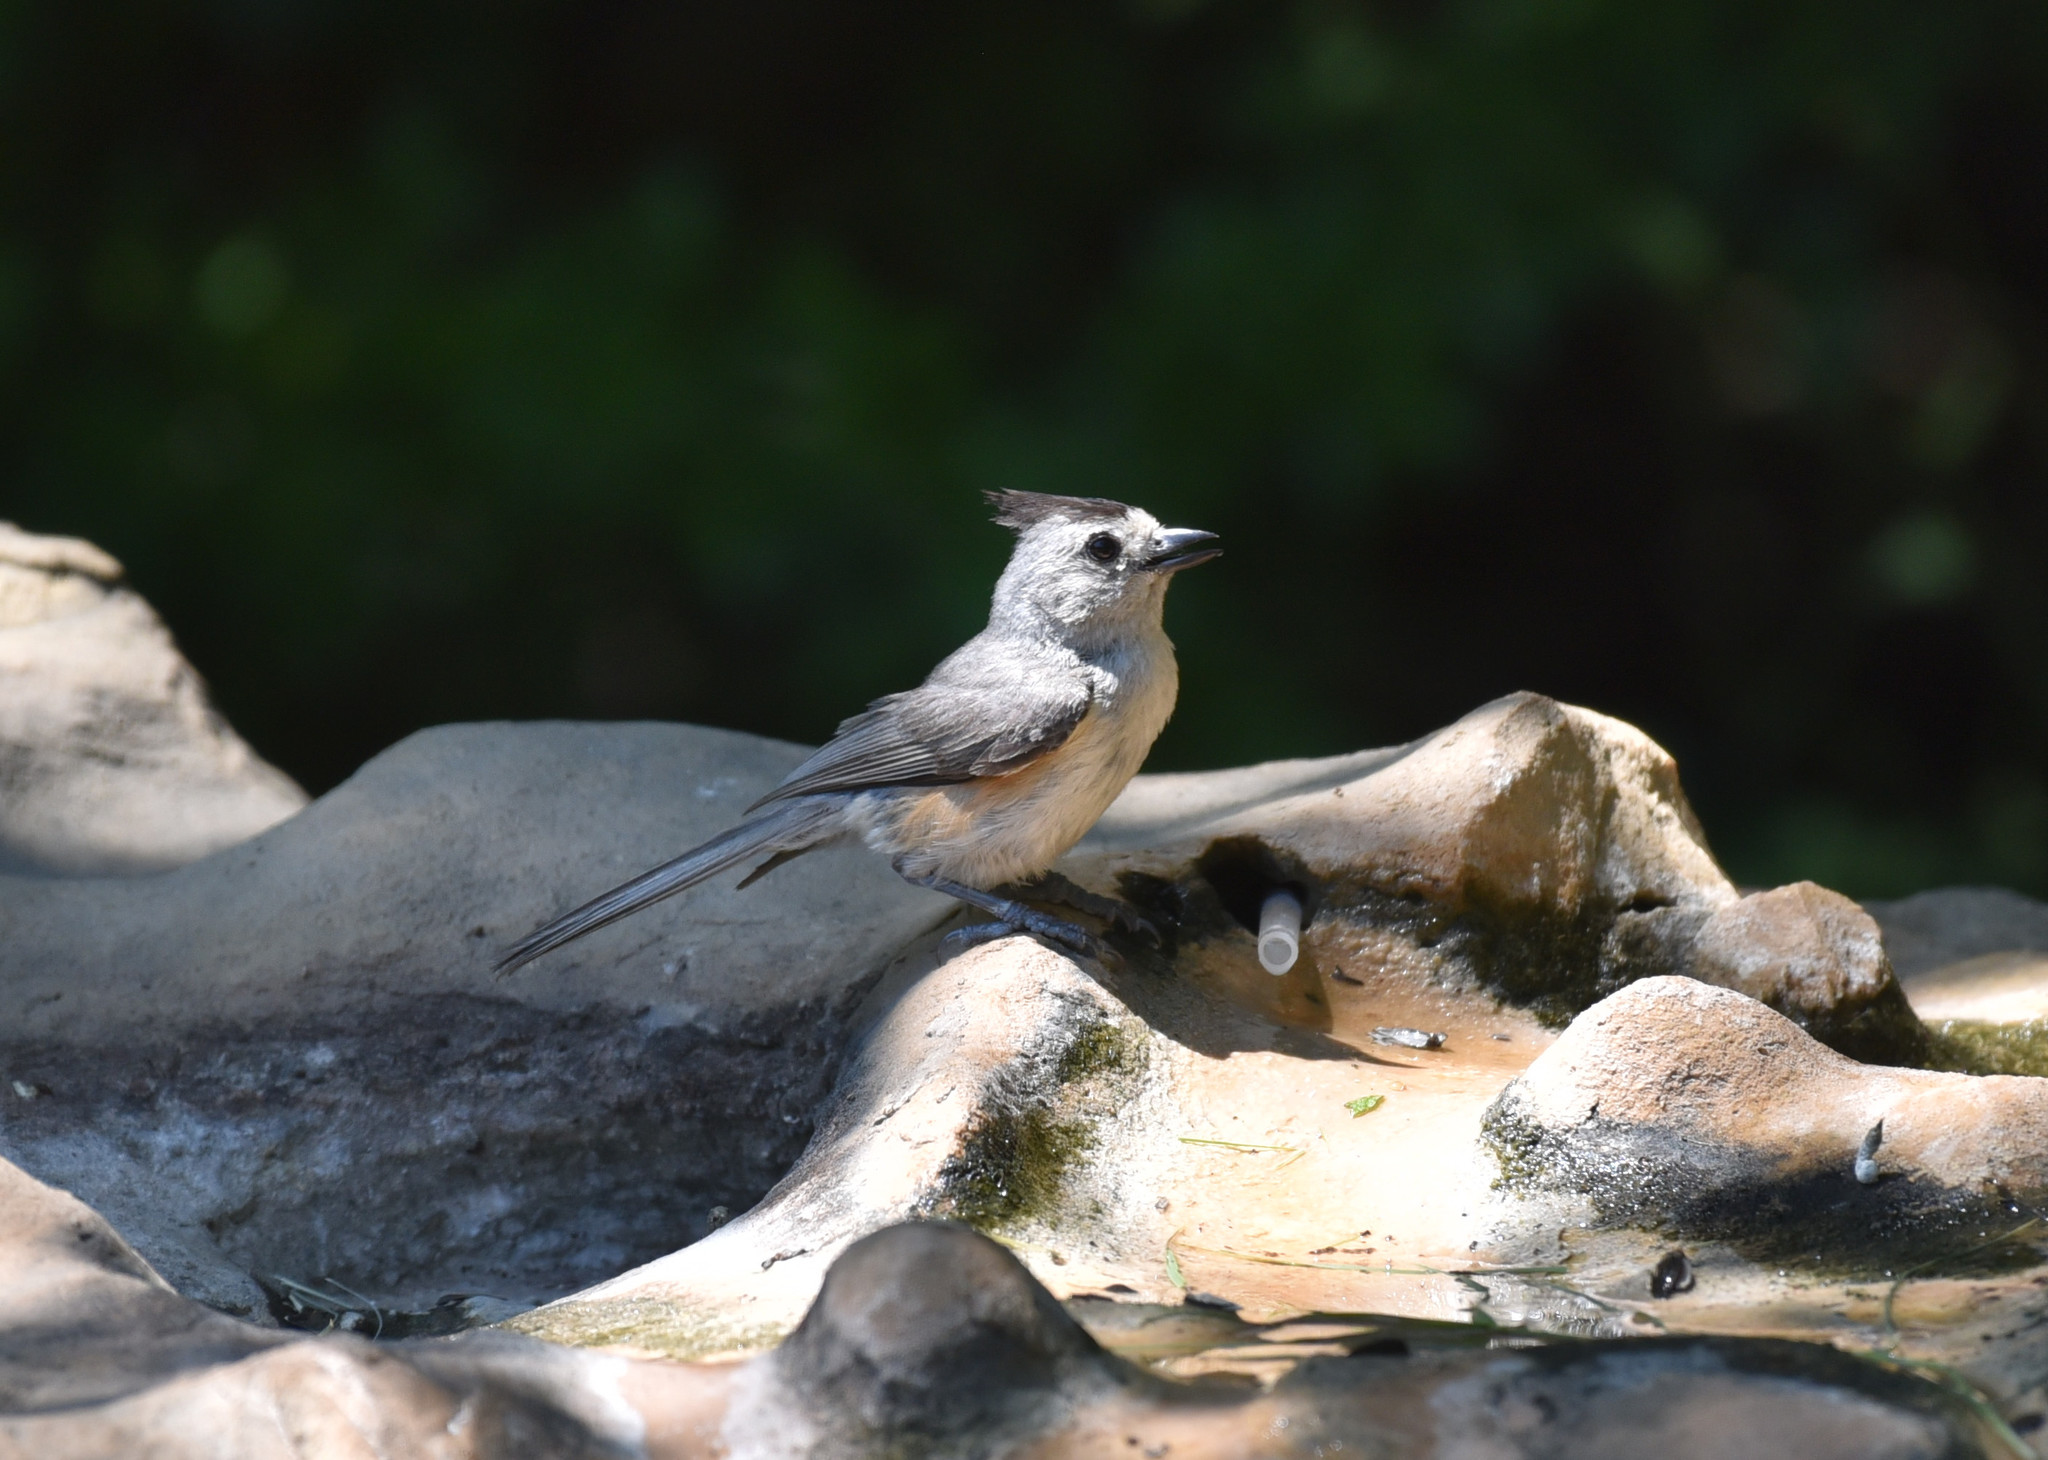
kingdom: Animalia
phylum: Chordata
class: Aves
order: Passeriformes
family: Paridae
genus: Baeolophus
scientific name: Baeolophus atricristatus
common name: Black-crested titmouse
